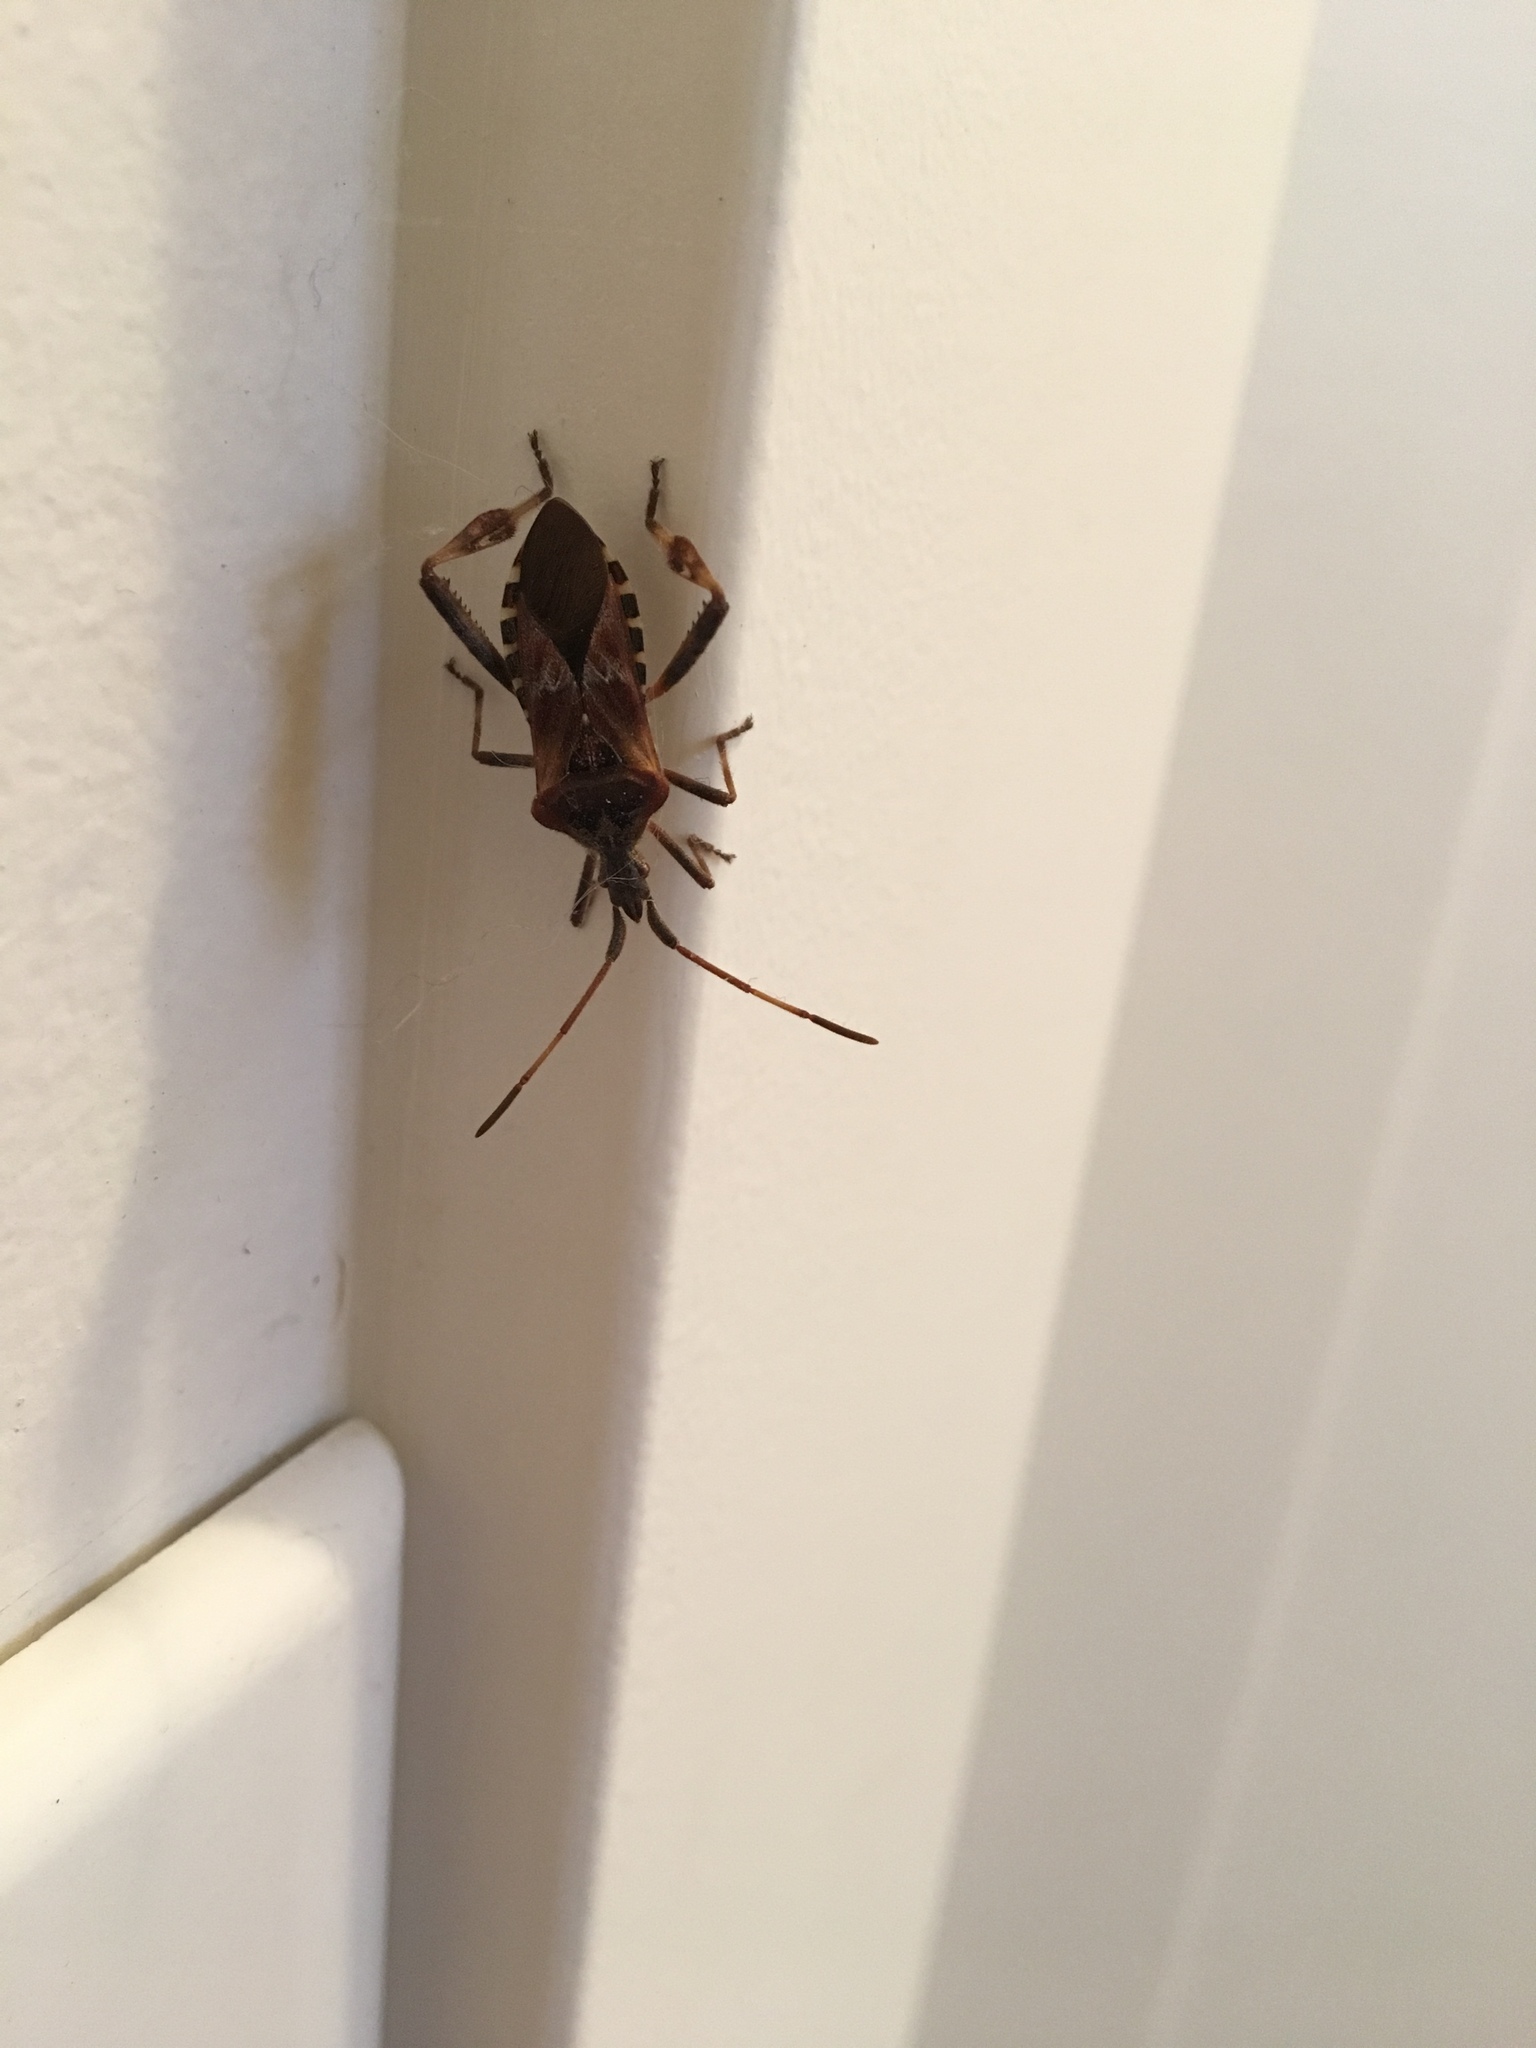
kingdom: Animalia
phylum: Arthropoda
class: Insecta
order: Hemiptera
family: Coreidae
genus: Leptoglossus
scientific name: Leptoglossus occidentalis
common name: Western conifer-seed bug
